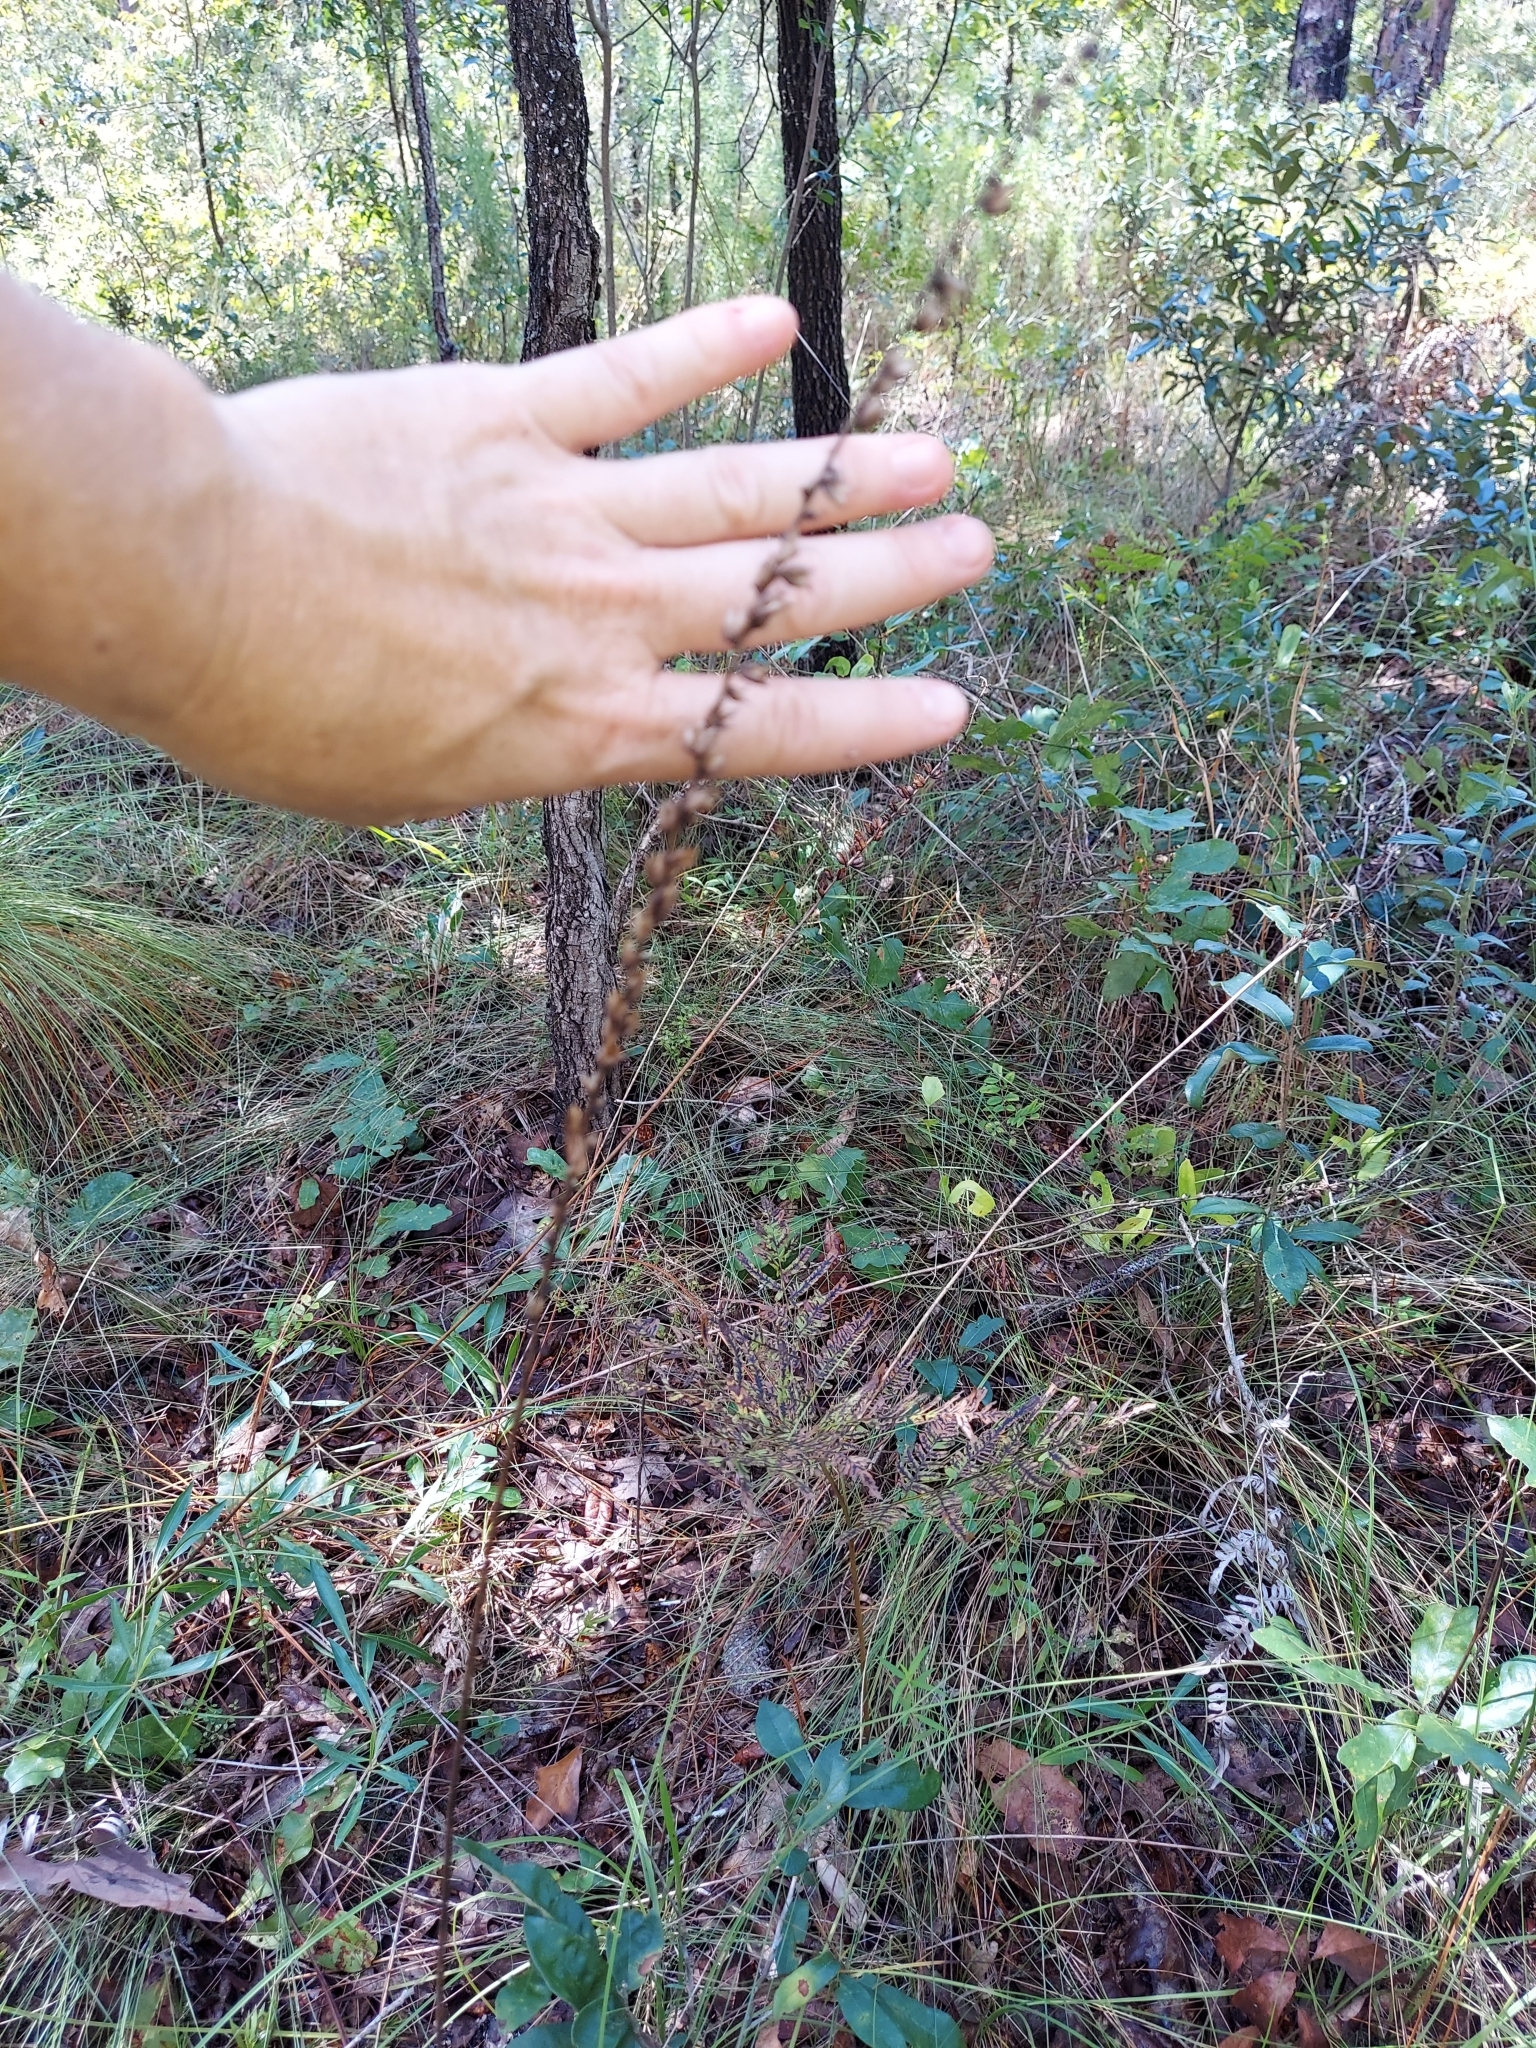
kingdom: Plantae
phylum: Tracheophyta
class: Liliopsida
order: Liliales
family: Melanthiaceae
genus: Schoenocaulon
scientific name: Schoenocaulon dubium
